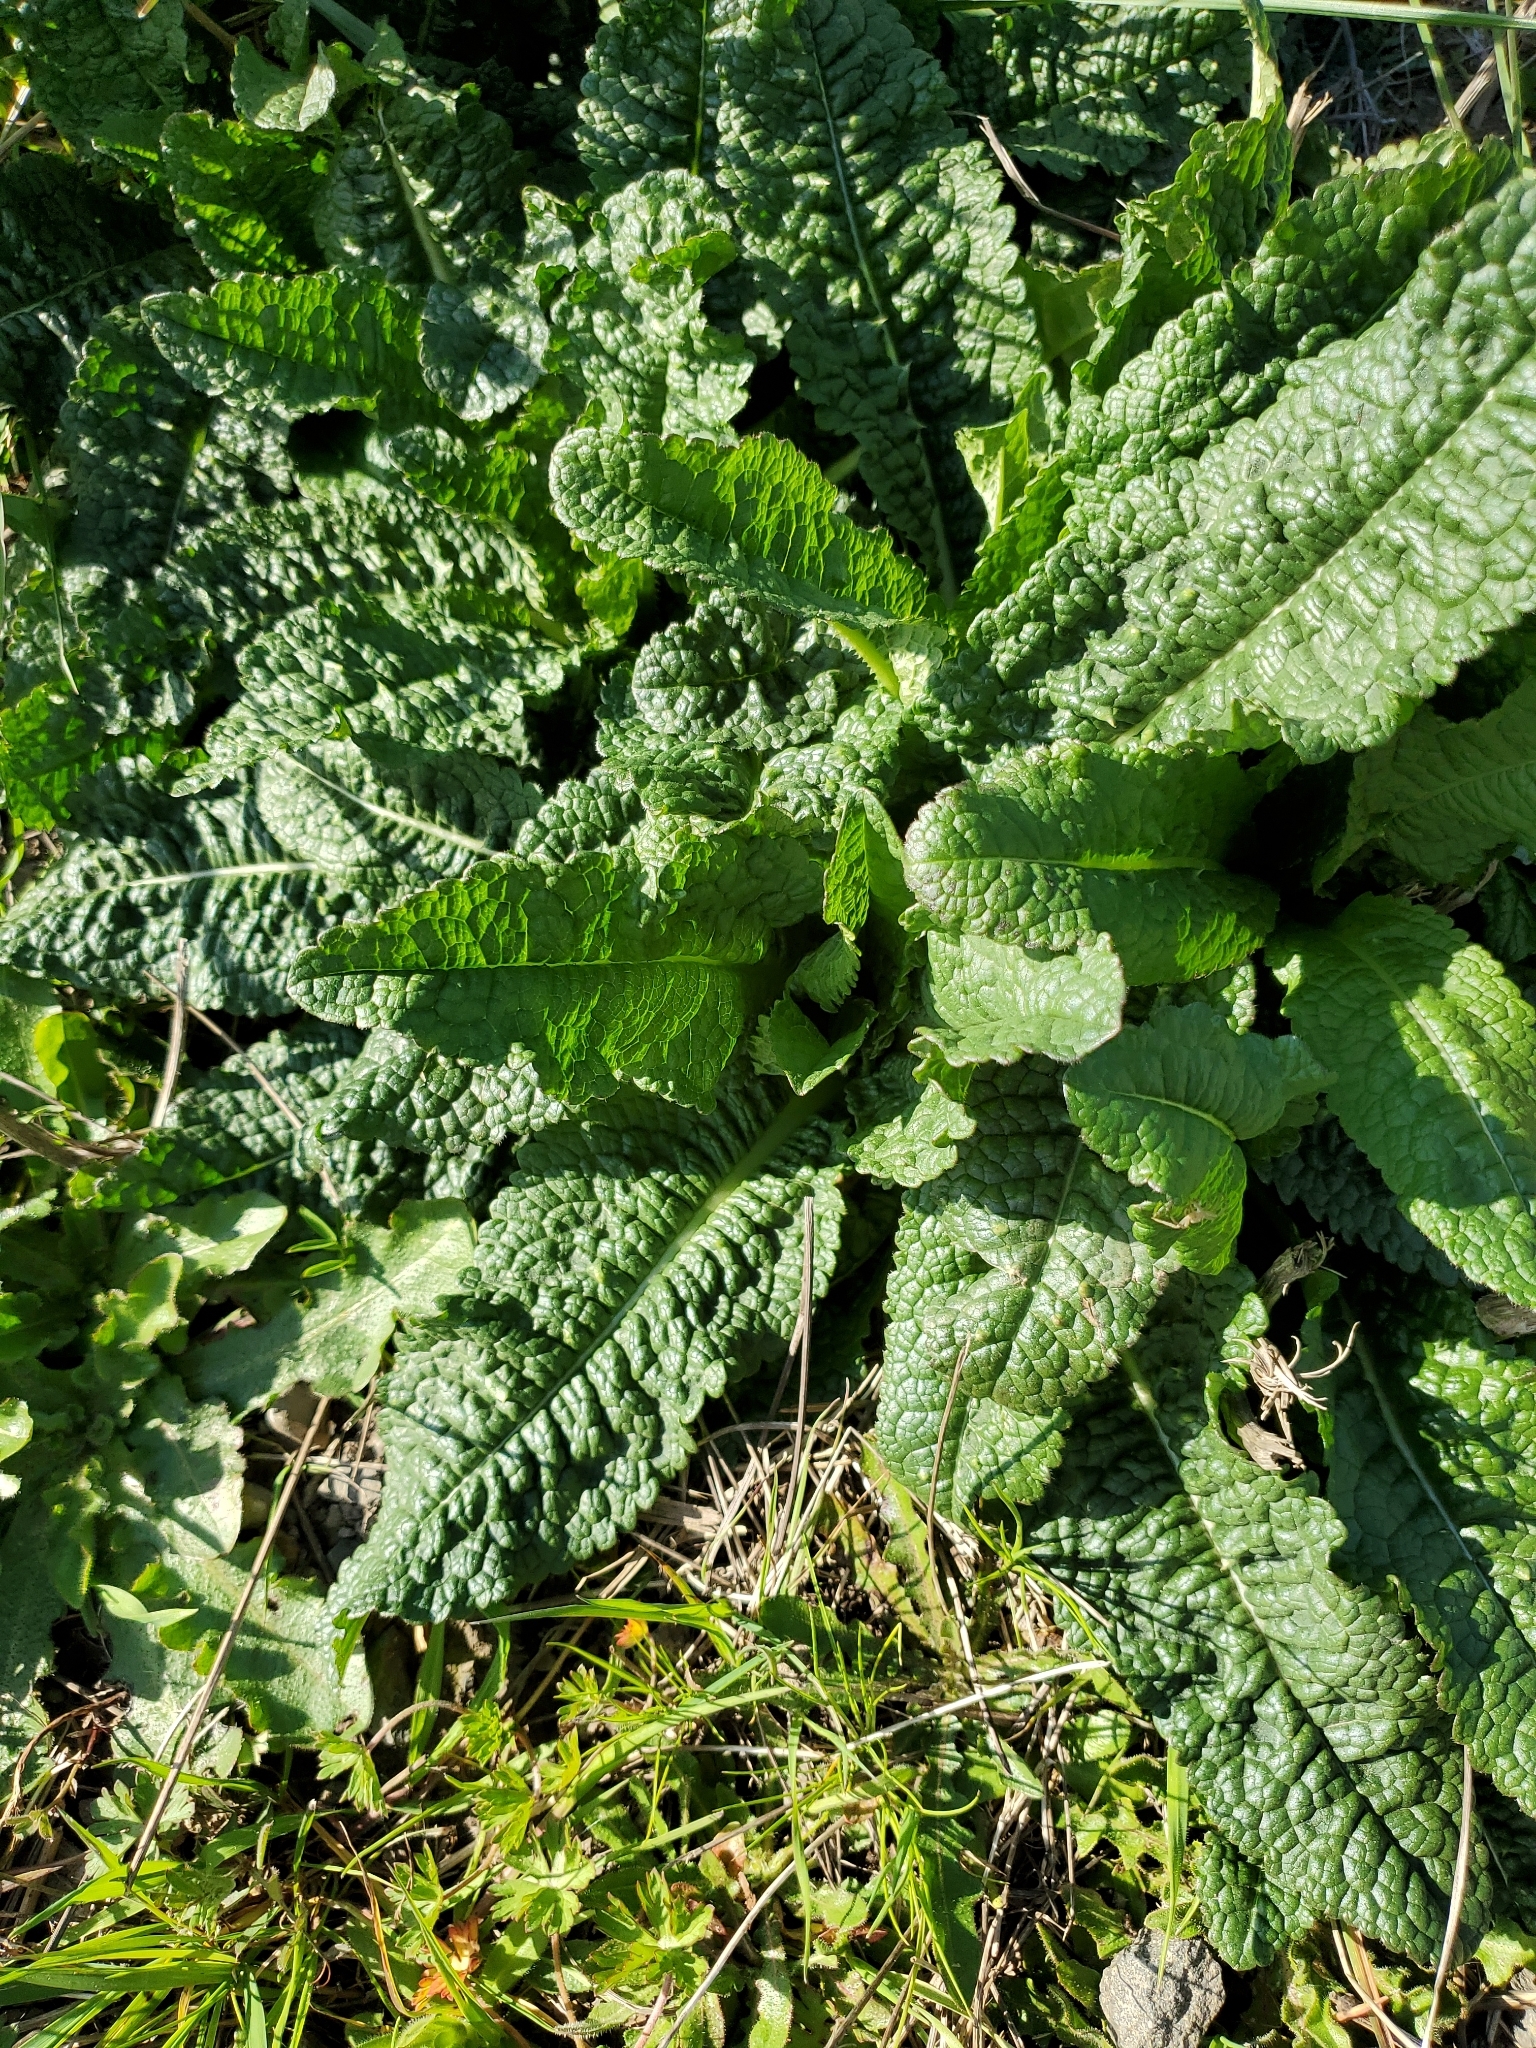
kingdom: Plantae
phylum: Tracheophyta
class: Magnoliopsida
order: Dipsacales
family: Caprifoliaceae
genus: Dipsacus
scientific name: Dipsacus fullonum
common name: Teasel
